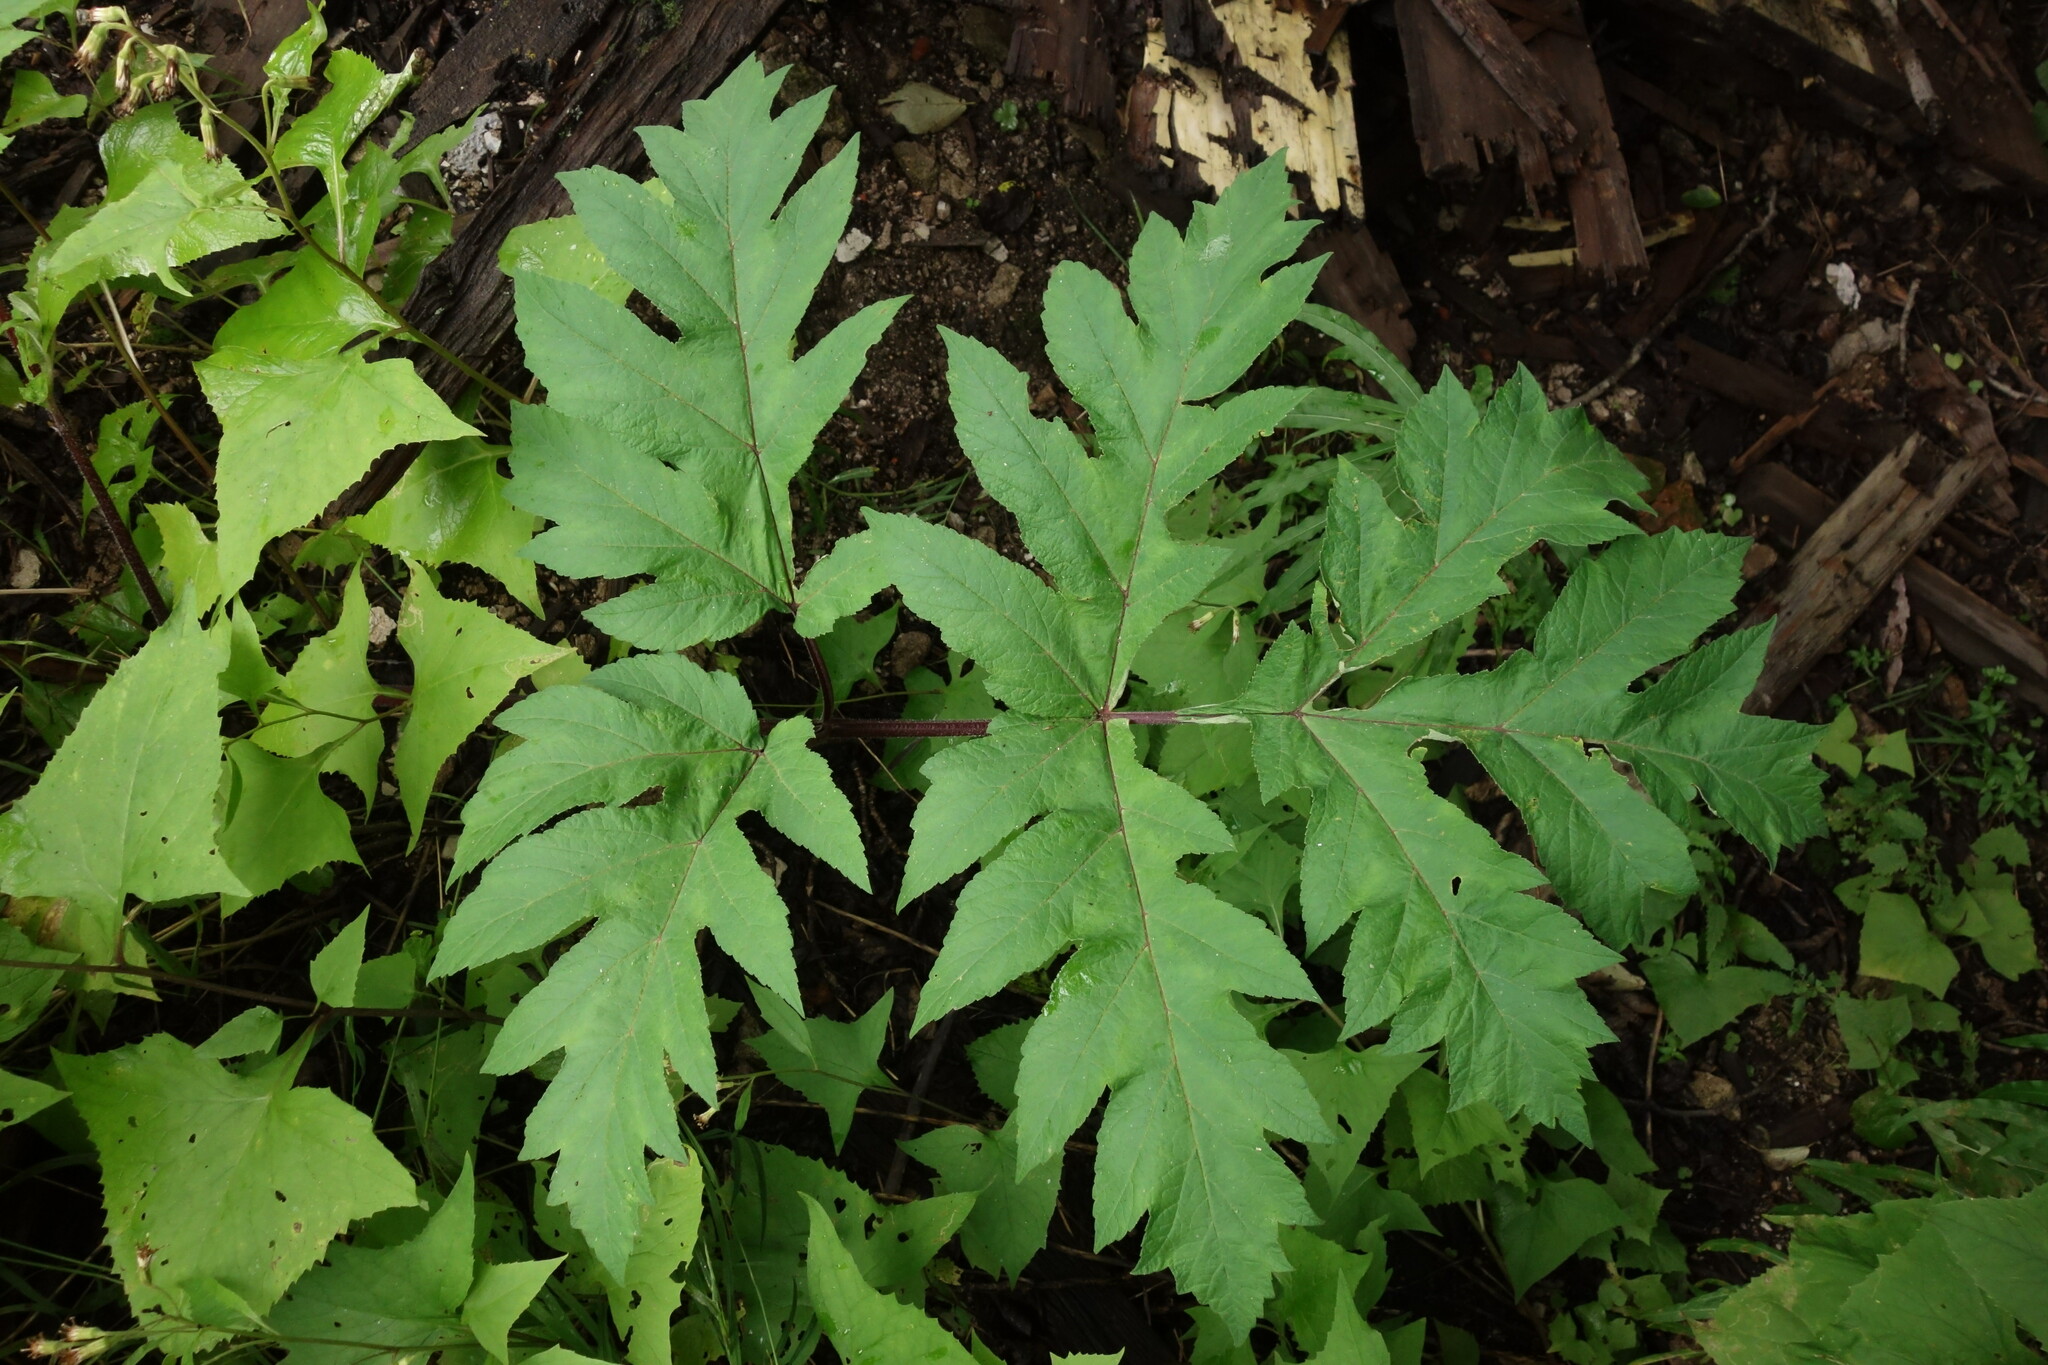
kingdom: Plantae
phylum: Tracheophyta
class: Magnoliopsida
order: Apiales
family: Apiaceae
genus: Heracleum
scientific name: Heracleum dissectum
